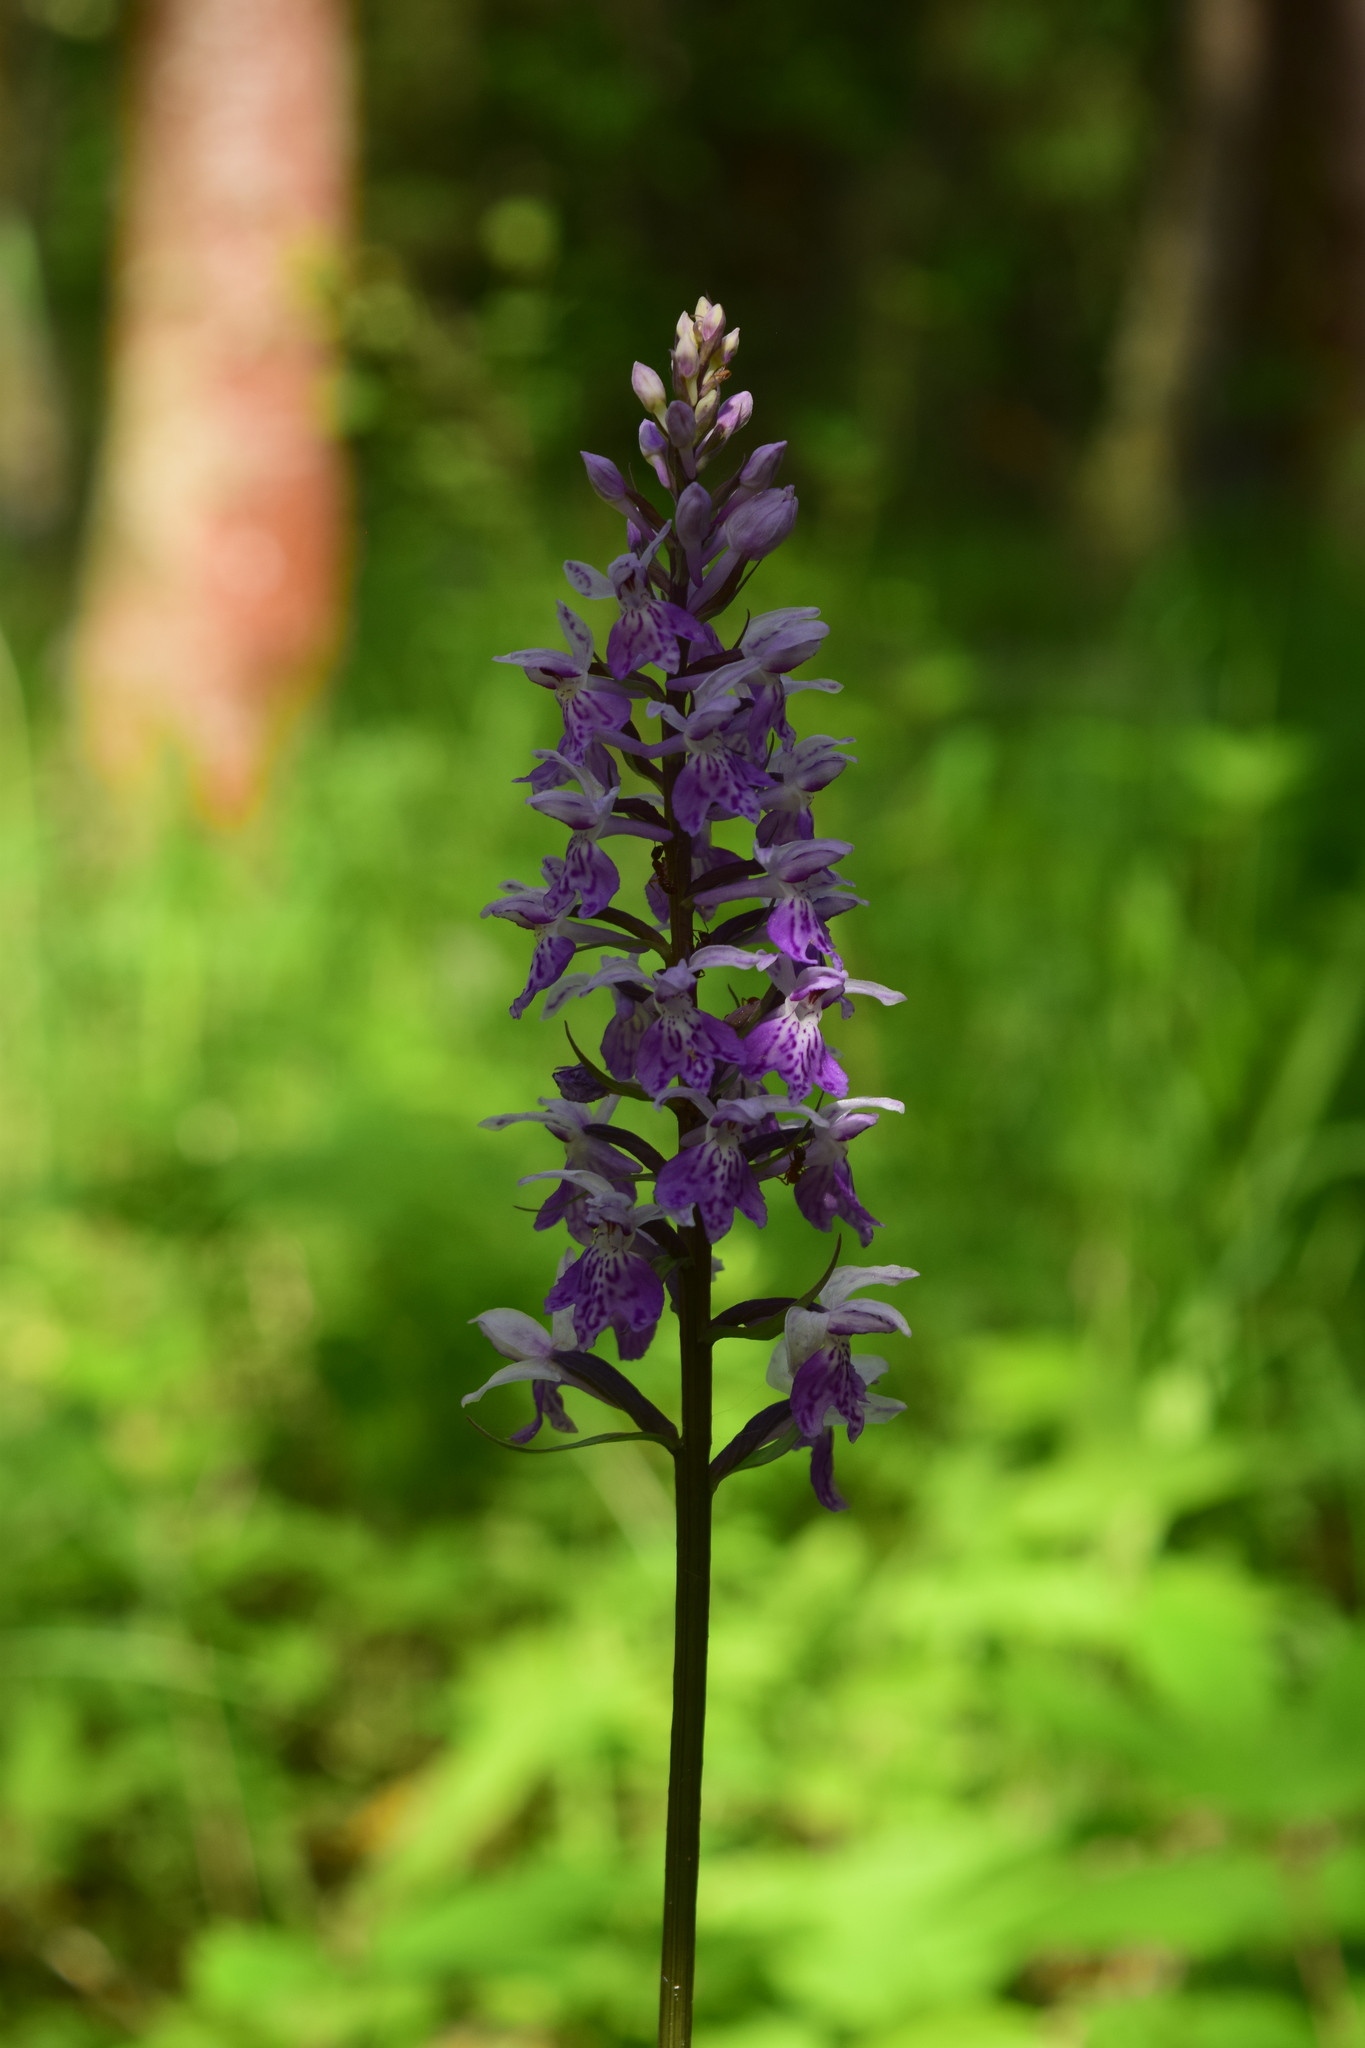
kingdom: Plantae
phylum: Tracheophyta
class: Liliopsida
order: Asparagales
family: Orchidaceae
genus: Dactylorhiza
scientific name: Dactylorhiza maculata
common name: Heath spotted-orchid
